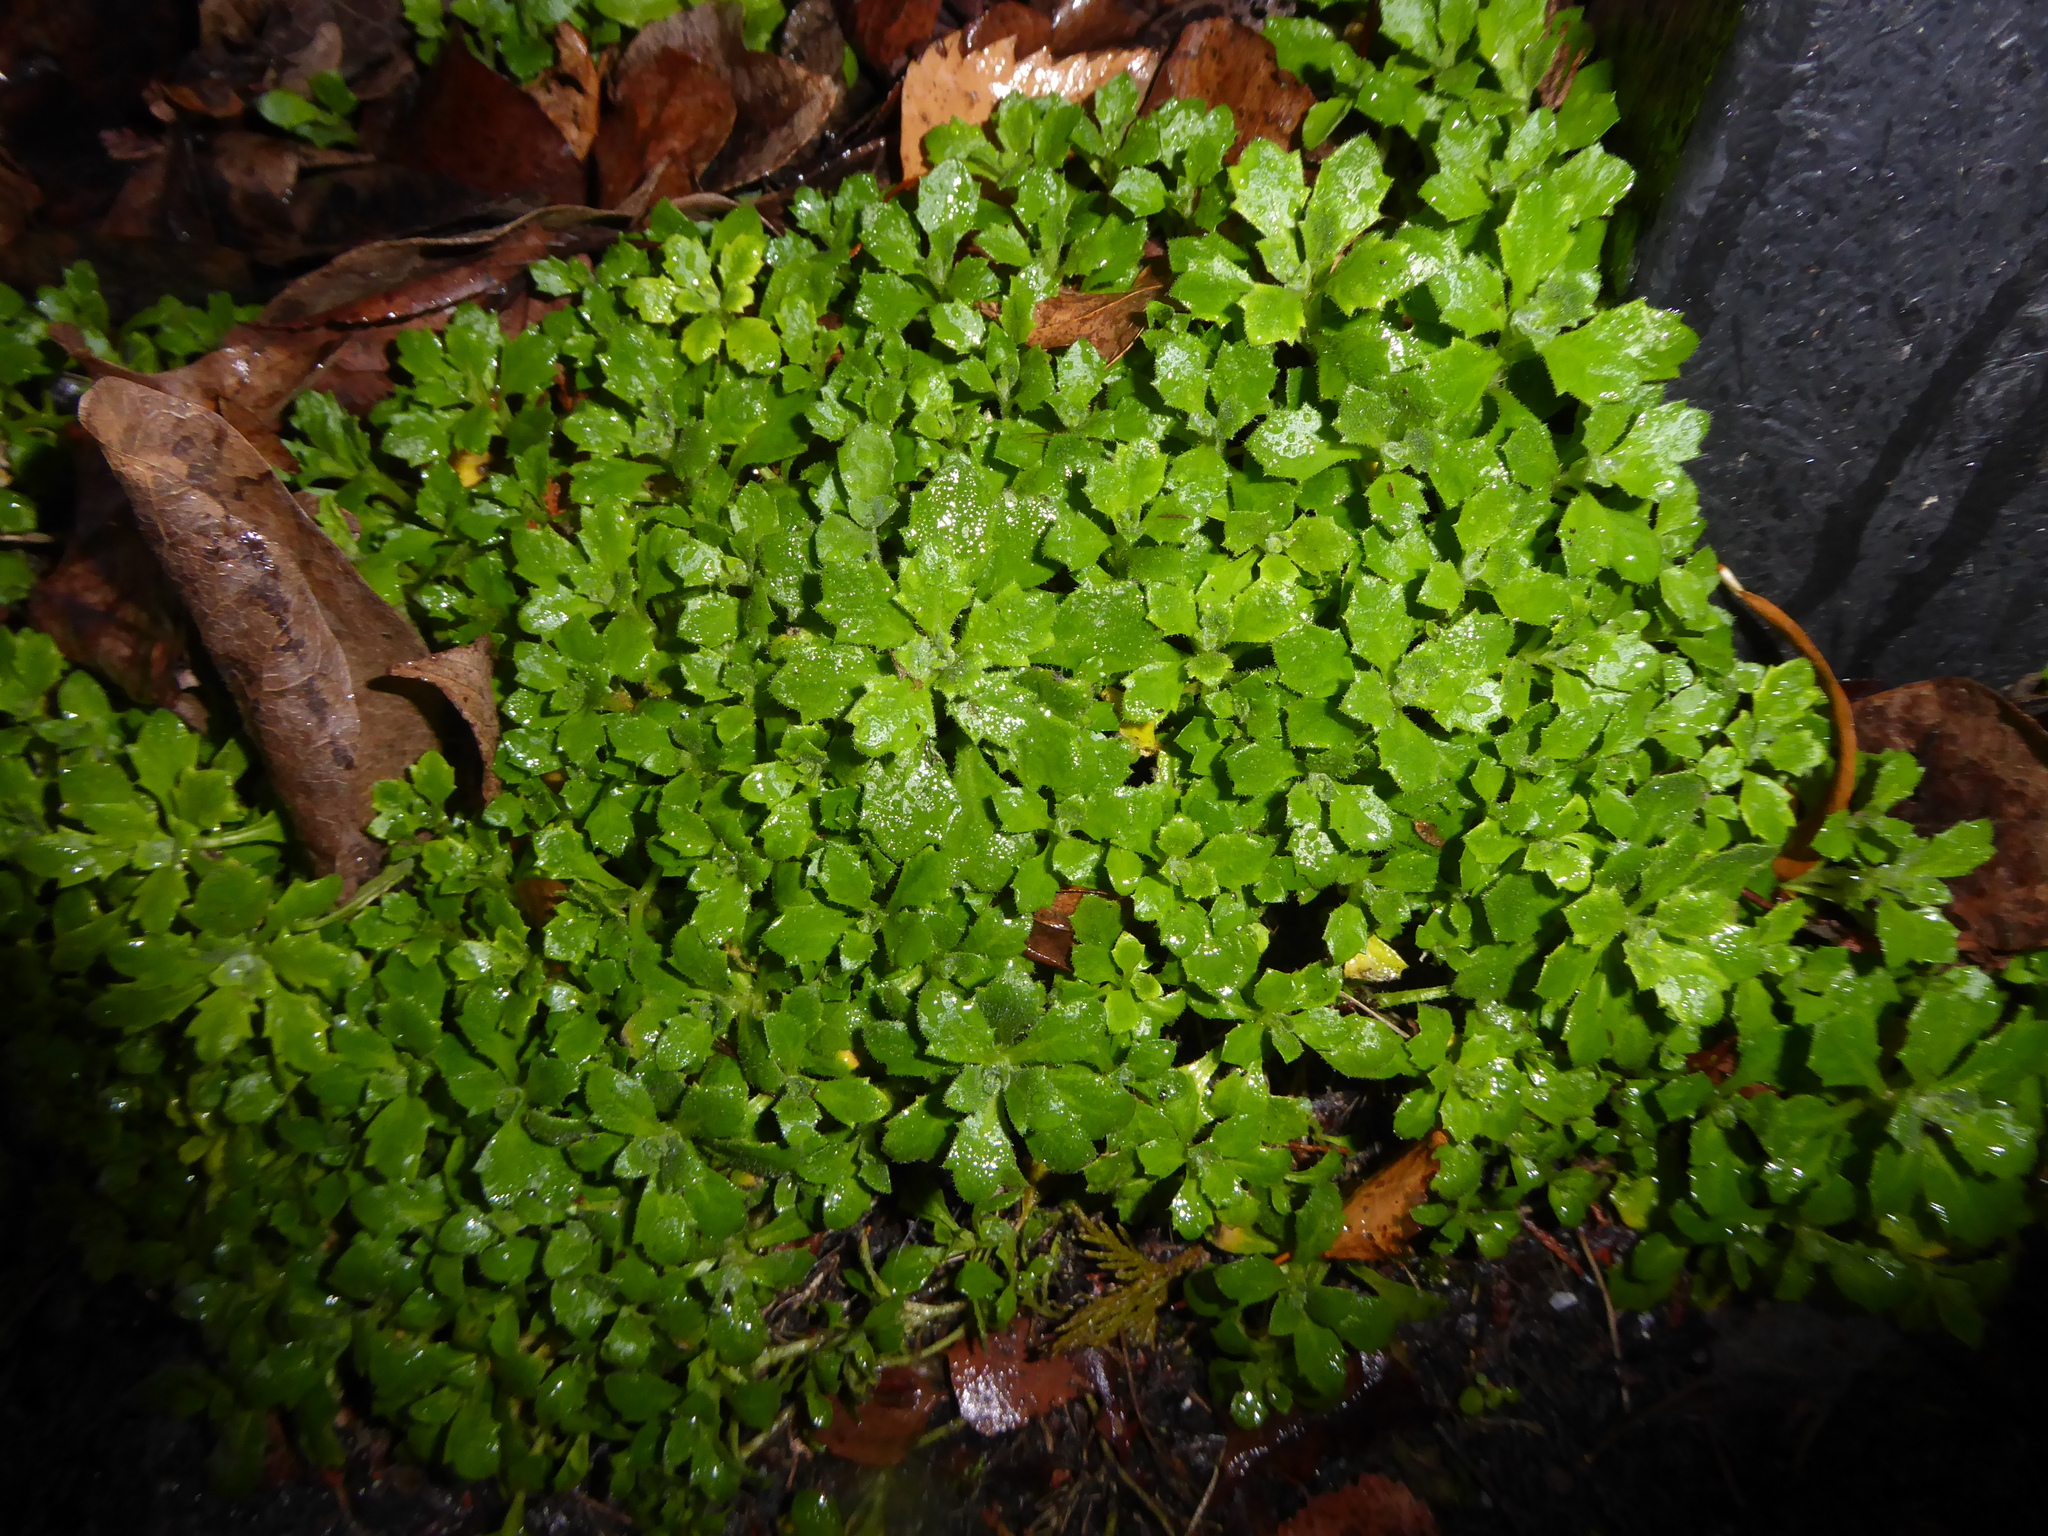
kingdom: Plantae
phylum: Tracheophyta
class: Magnoliopsida
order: Brassicales
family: Brassicaceae
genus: Aubrieta
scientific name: Aubrieta deltoidea
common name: Aubretia
